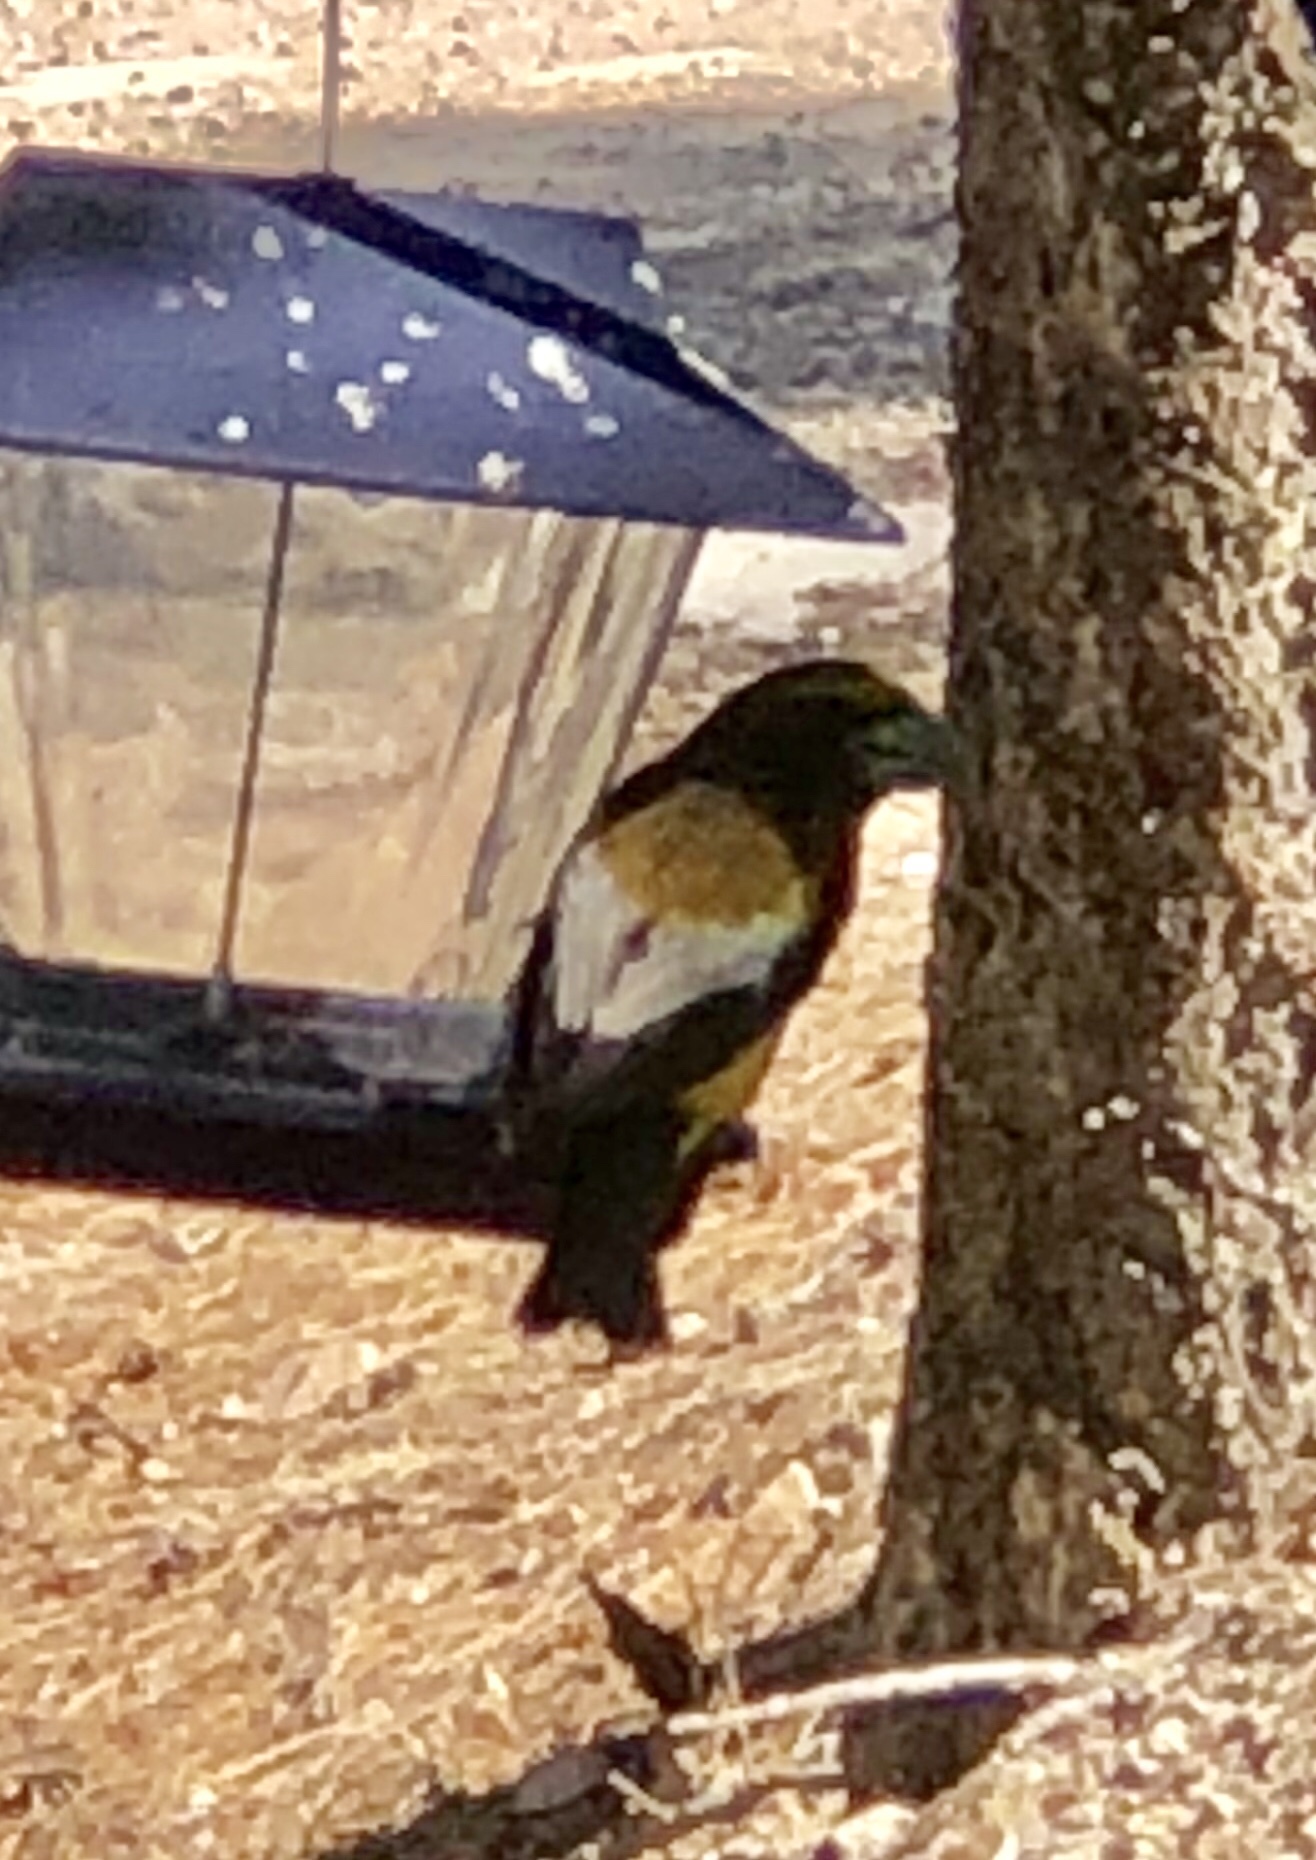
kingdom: Animalia
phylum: Chordata
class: Aves
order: Passeriformes
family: Fringillidae
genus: Hesperiphona
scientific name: Hesperiphona vespertina
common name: Evening grosbeak
